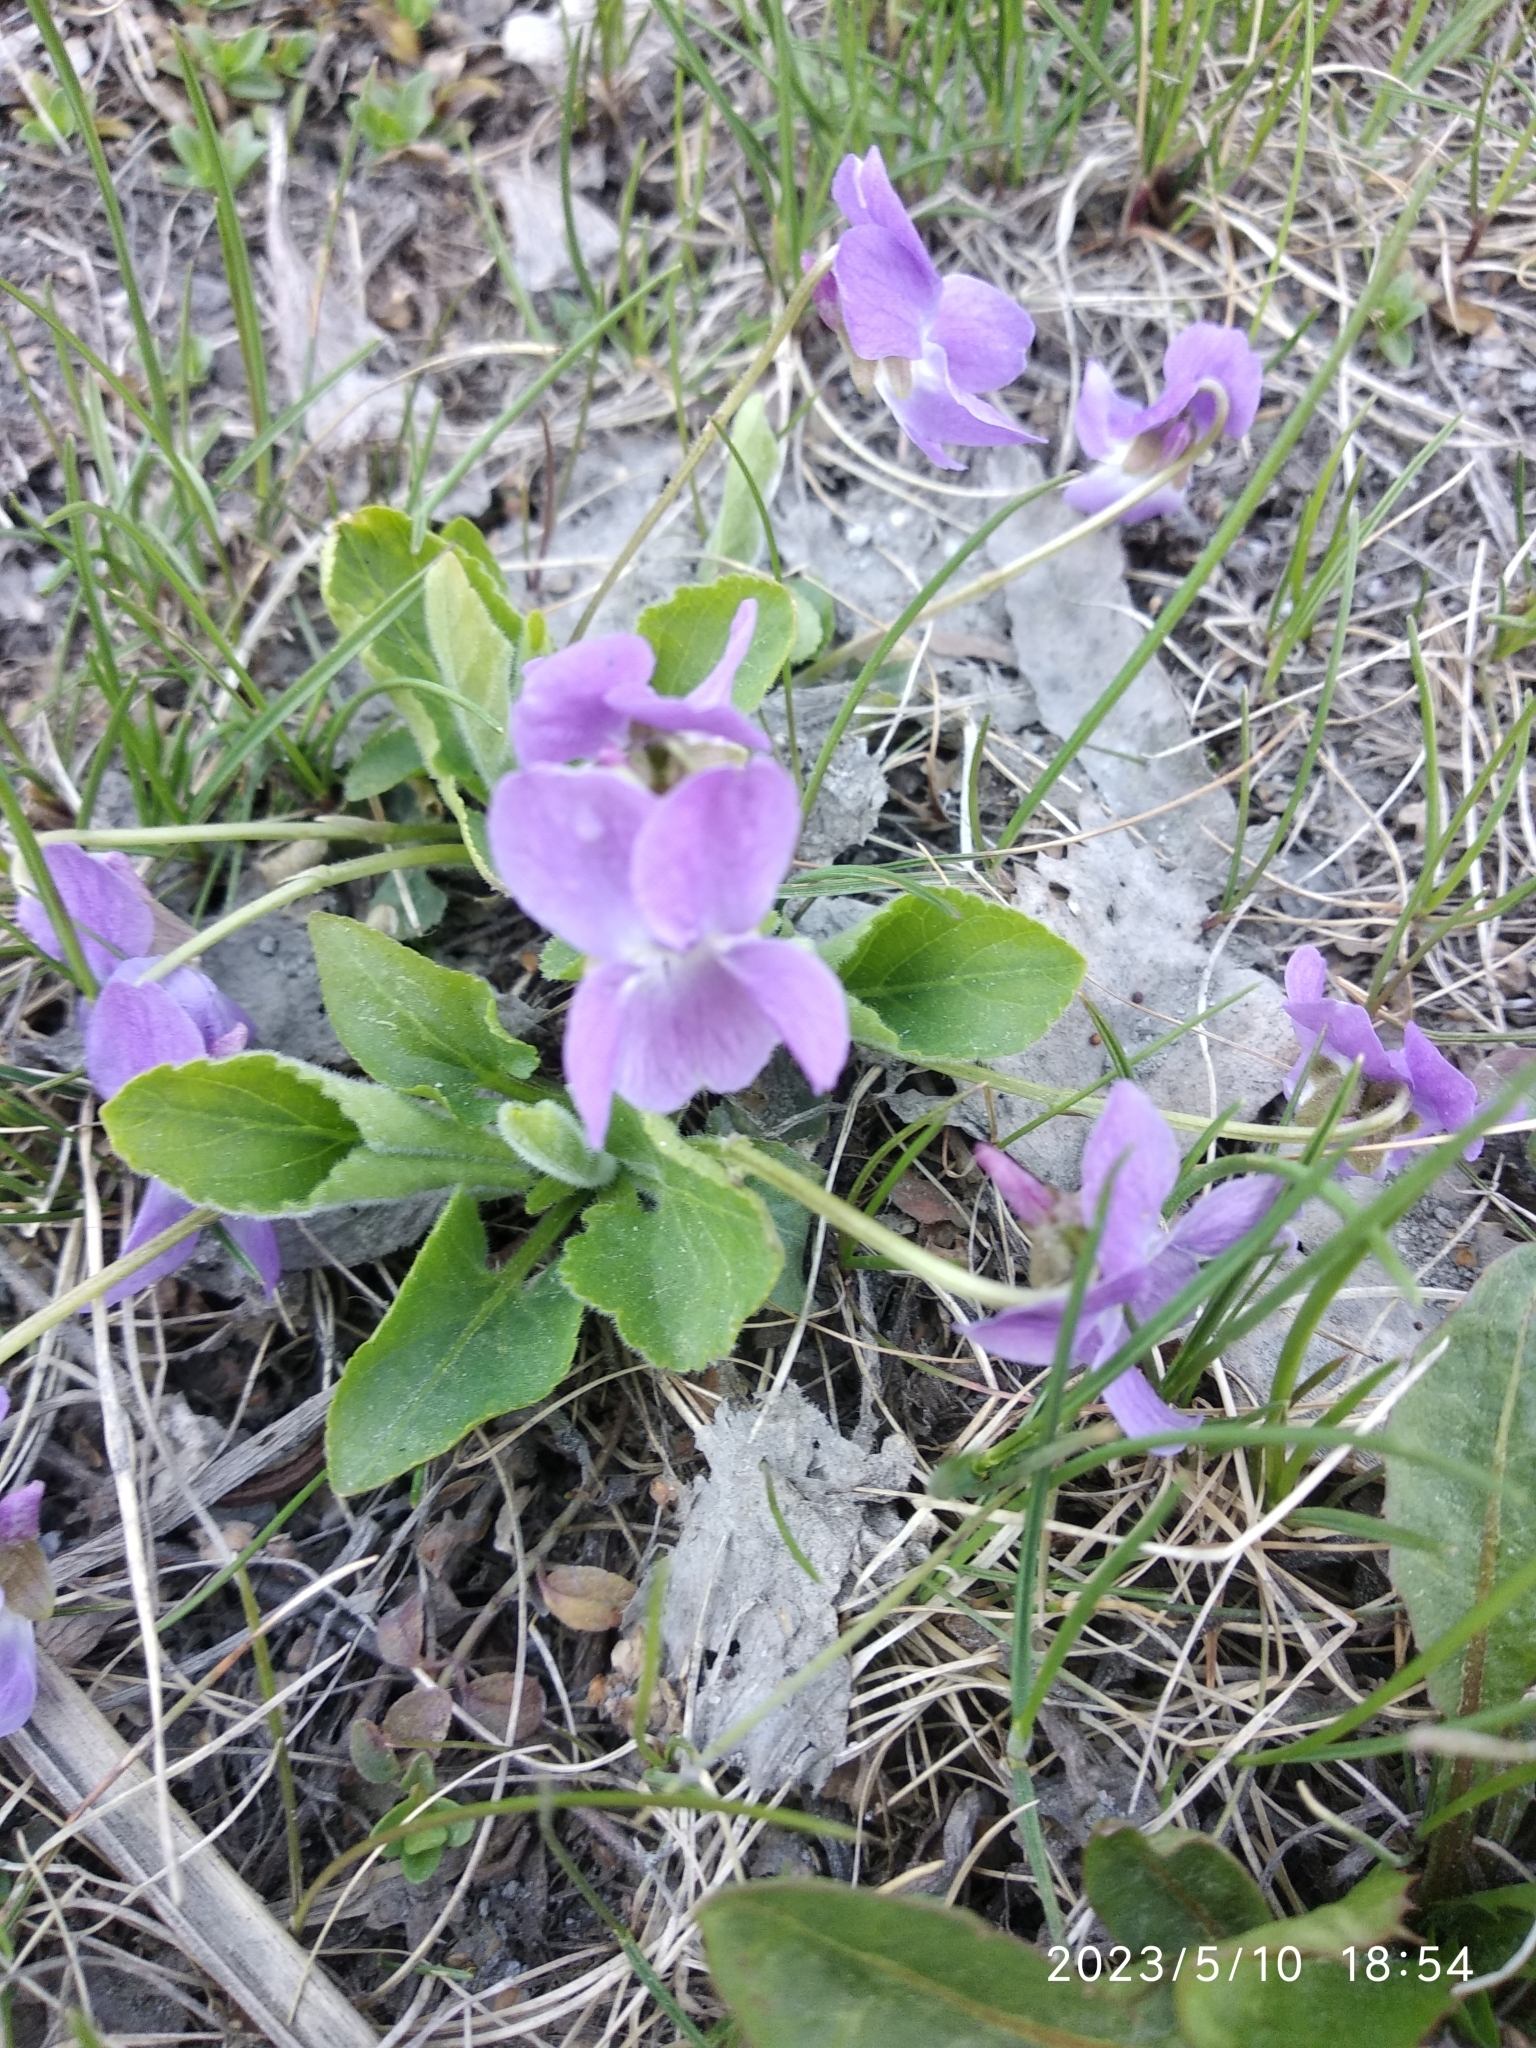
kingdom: Plantae
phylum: Tracheophyta
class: Magnoliopsida
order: Malpighiales
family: Violaceae
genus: Viola
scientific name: Viola hirta
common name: Hairy violet
